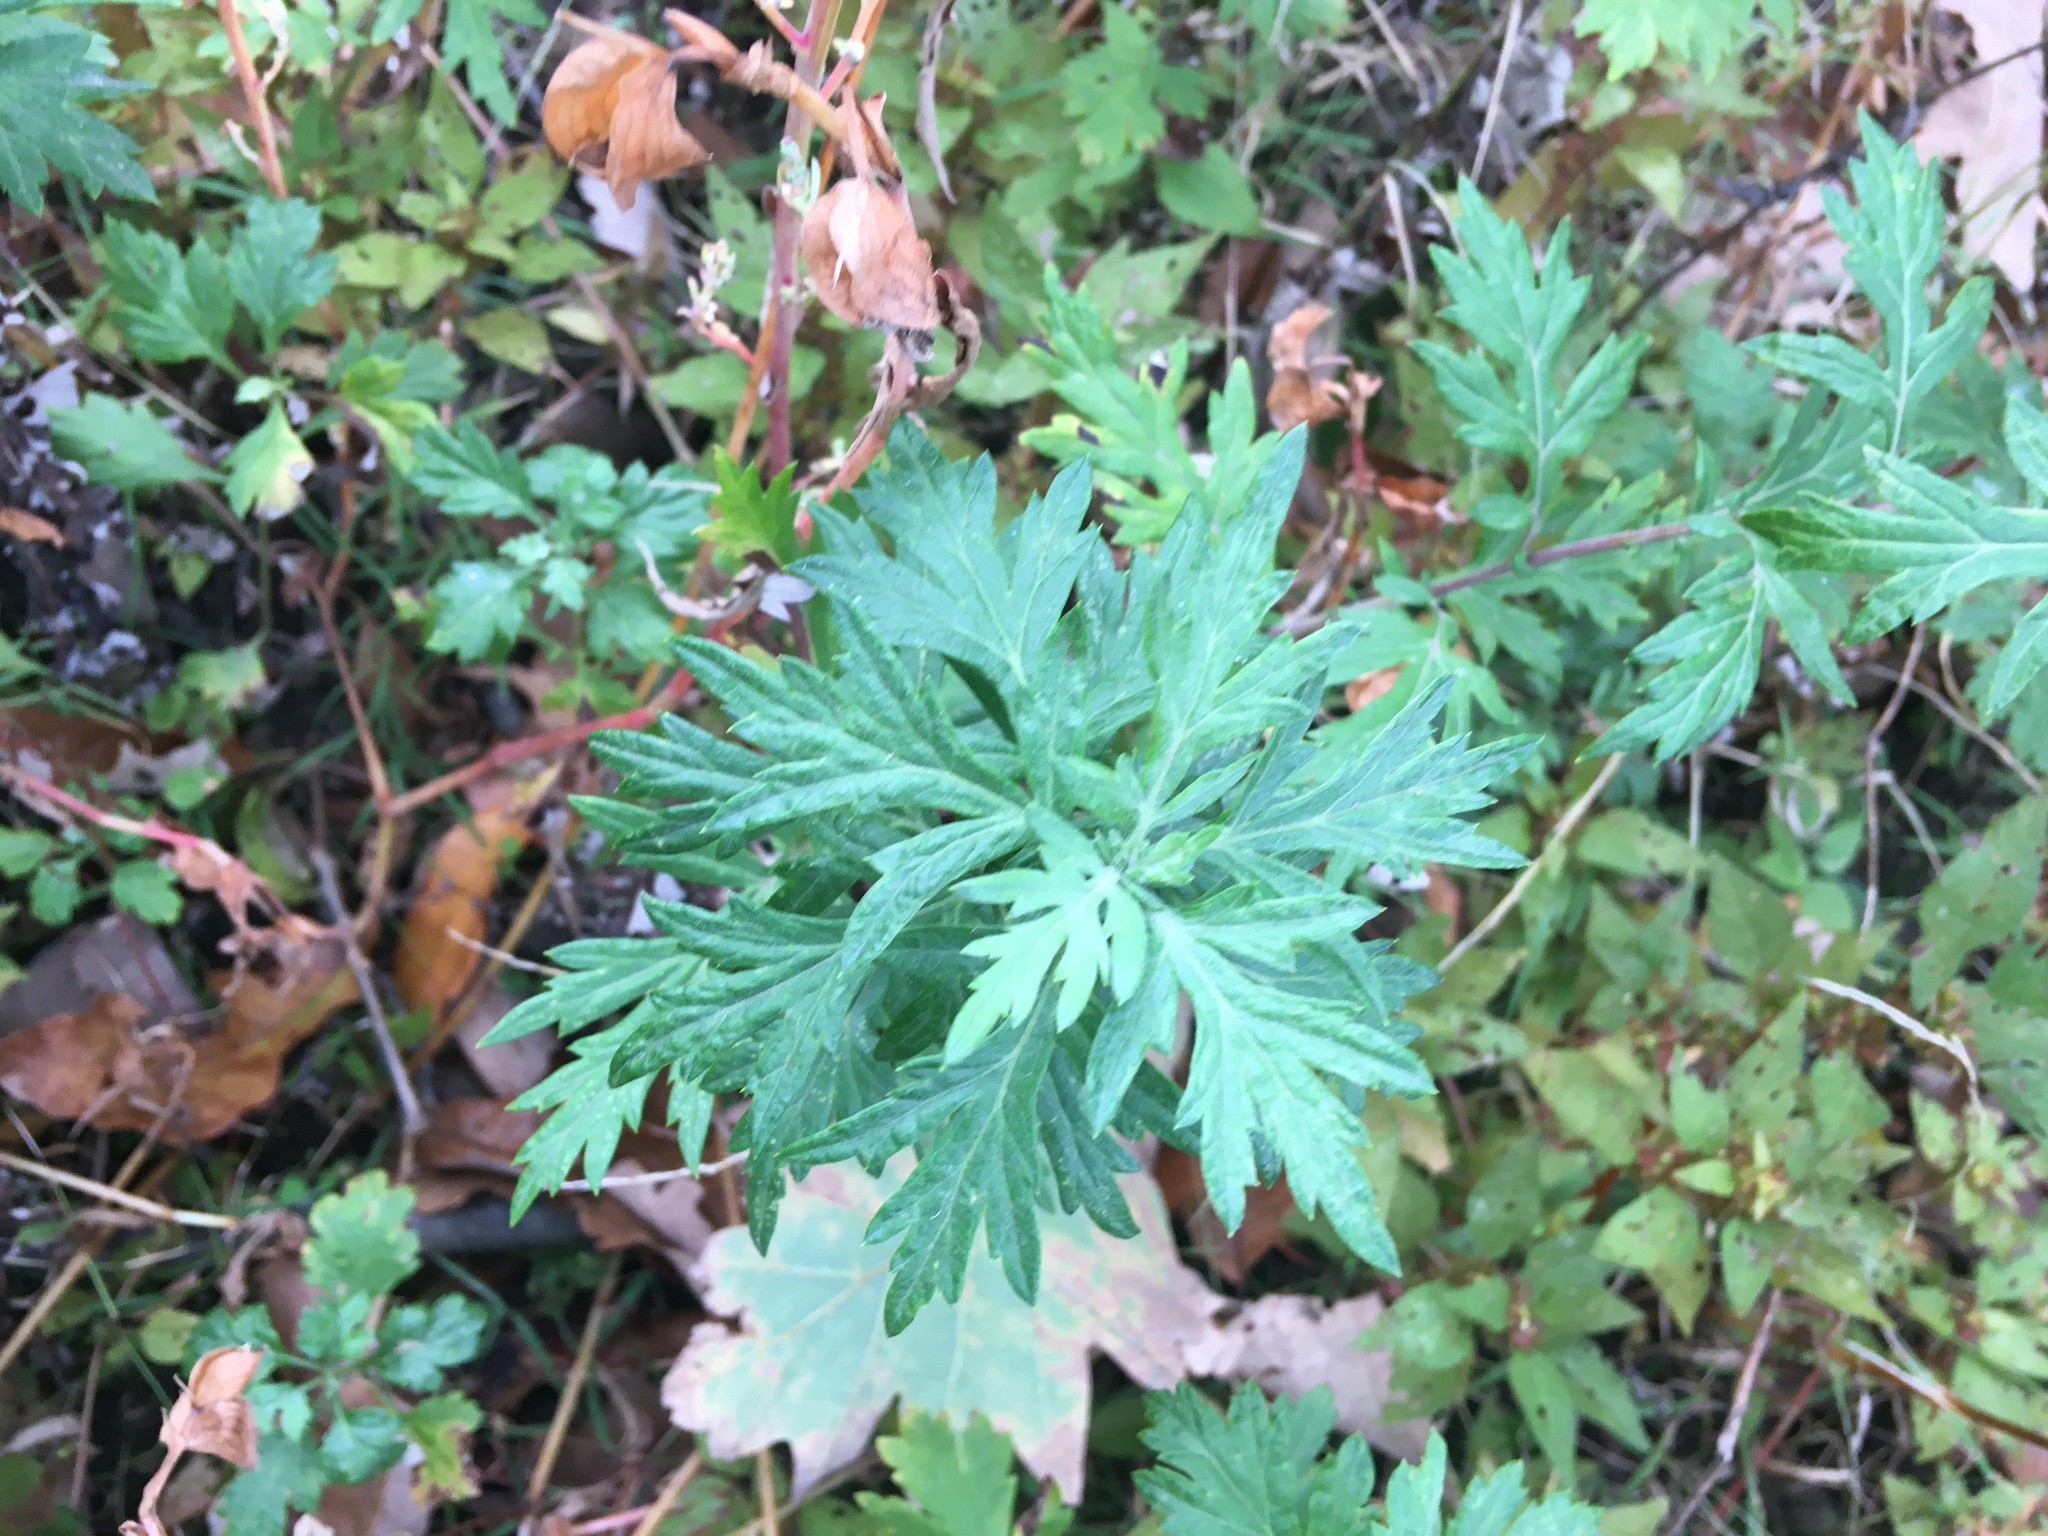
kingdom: Plantae
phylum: Tracheophyta
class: Magnoliopsida
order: Asterales
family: Asteraceae
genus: Artemisia
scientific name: Artemisia vulgaris
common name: Mugwort
